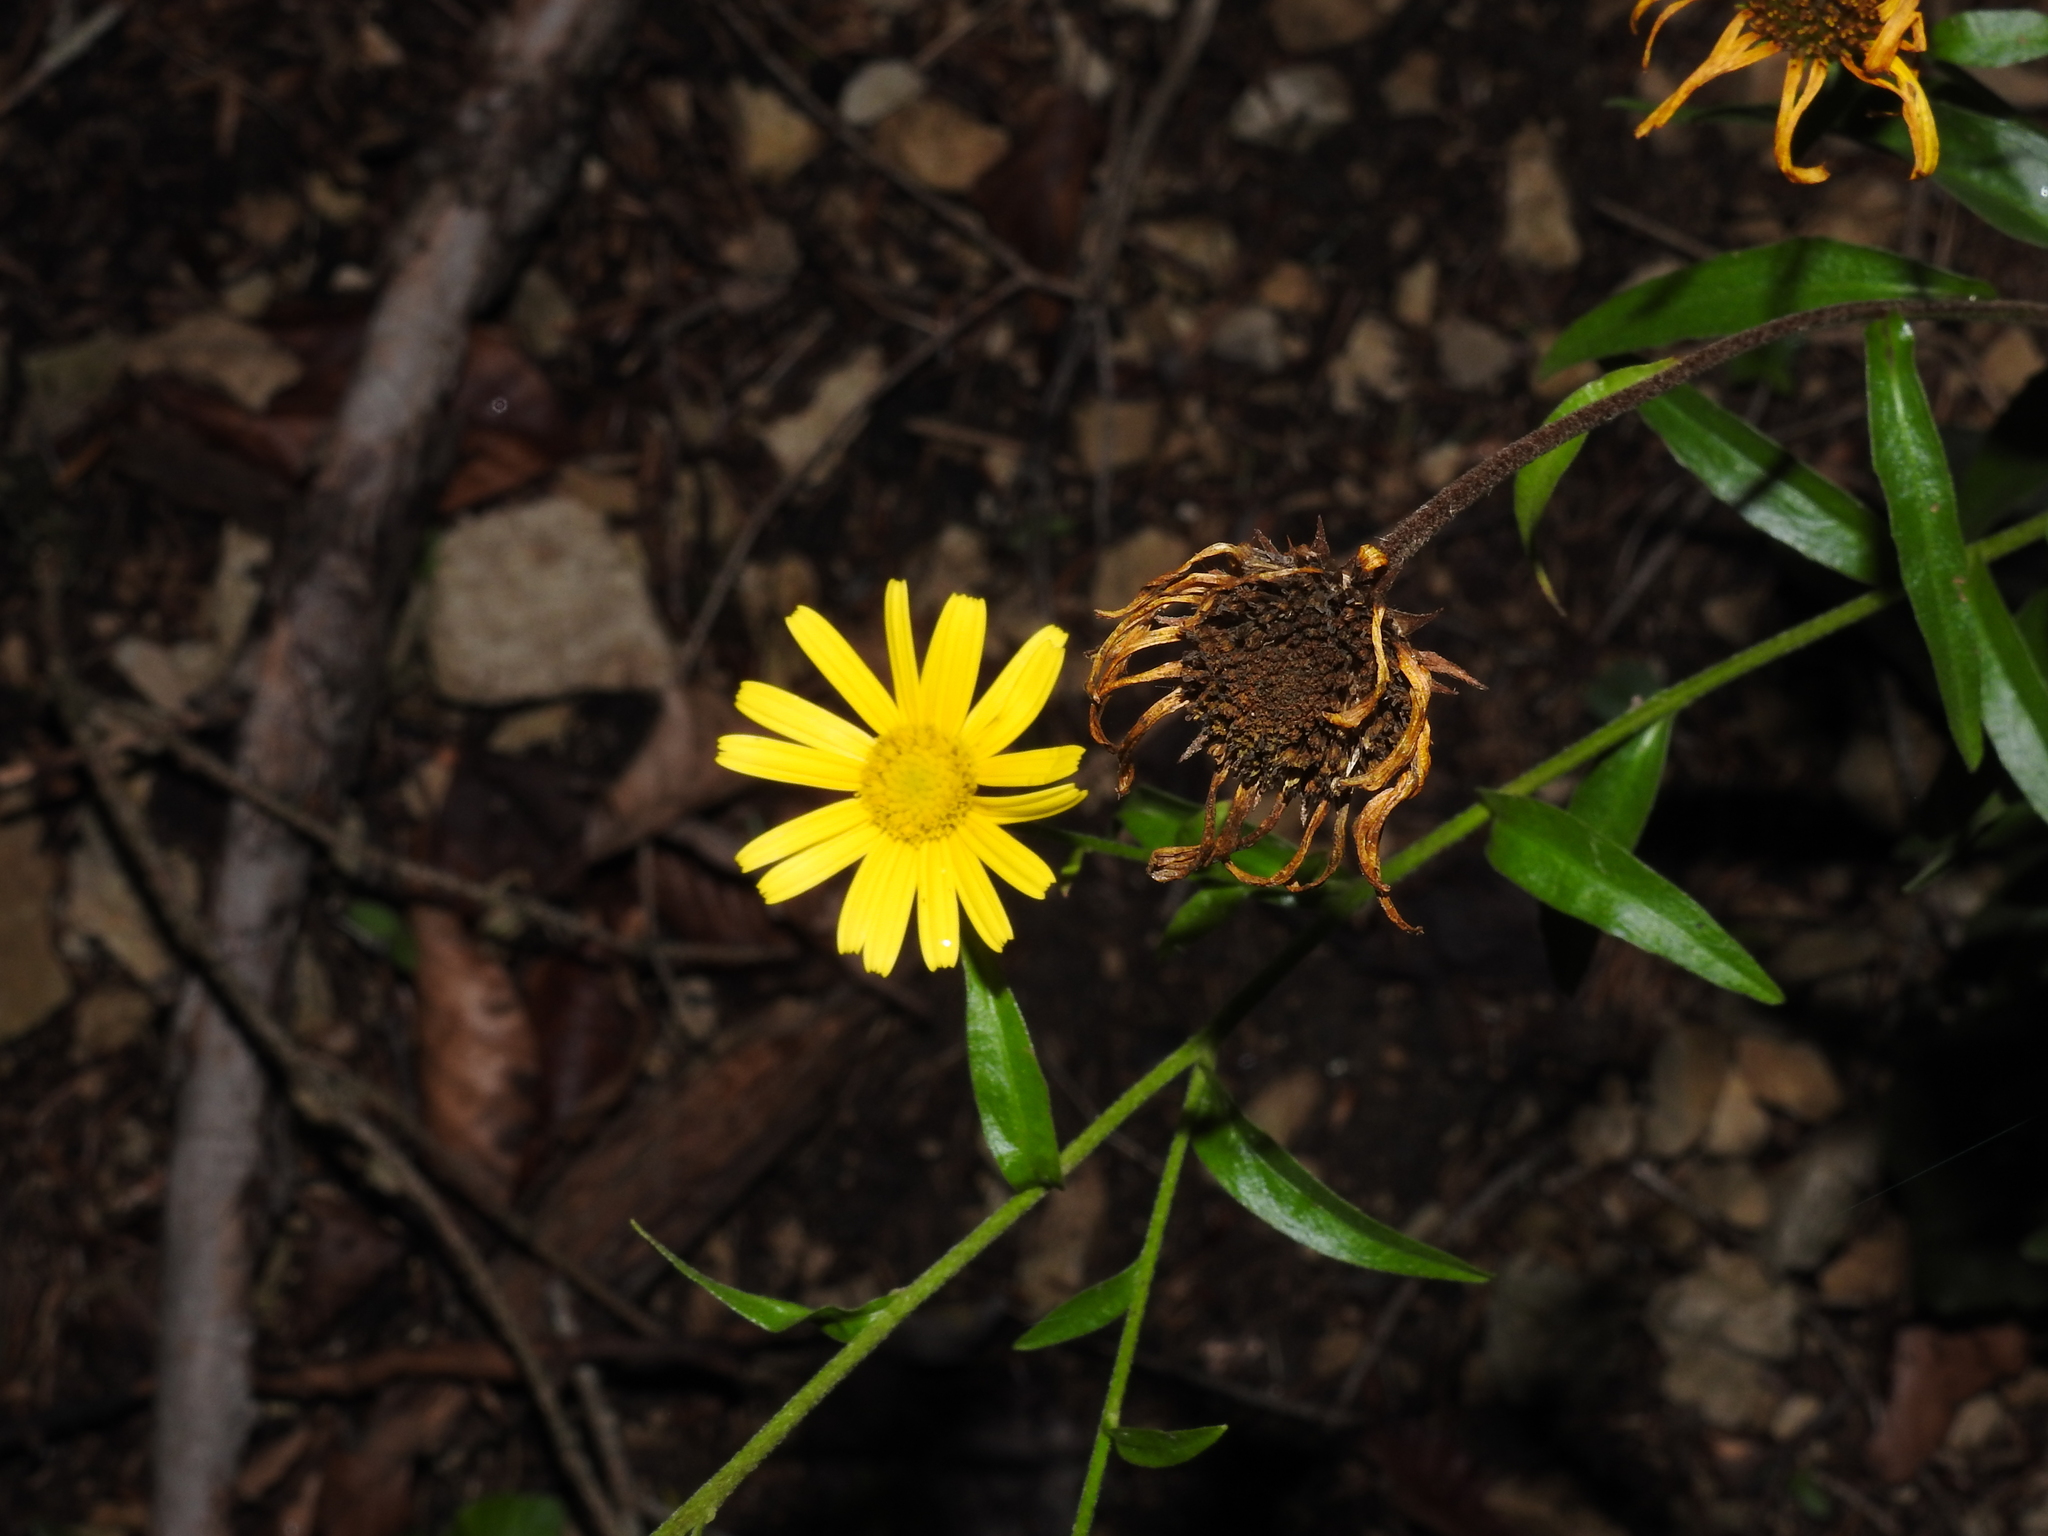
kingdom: Plantae
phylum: Tracheophyta
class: Magnoliopsida
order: Asterales
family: Asteraceae
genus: Buphthalmum
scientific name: Buphthalmum salicifolium
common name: Willow-leaved yellow-oxeye
